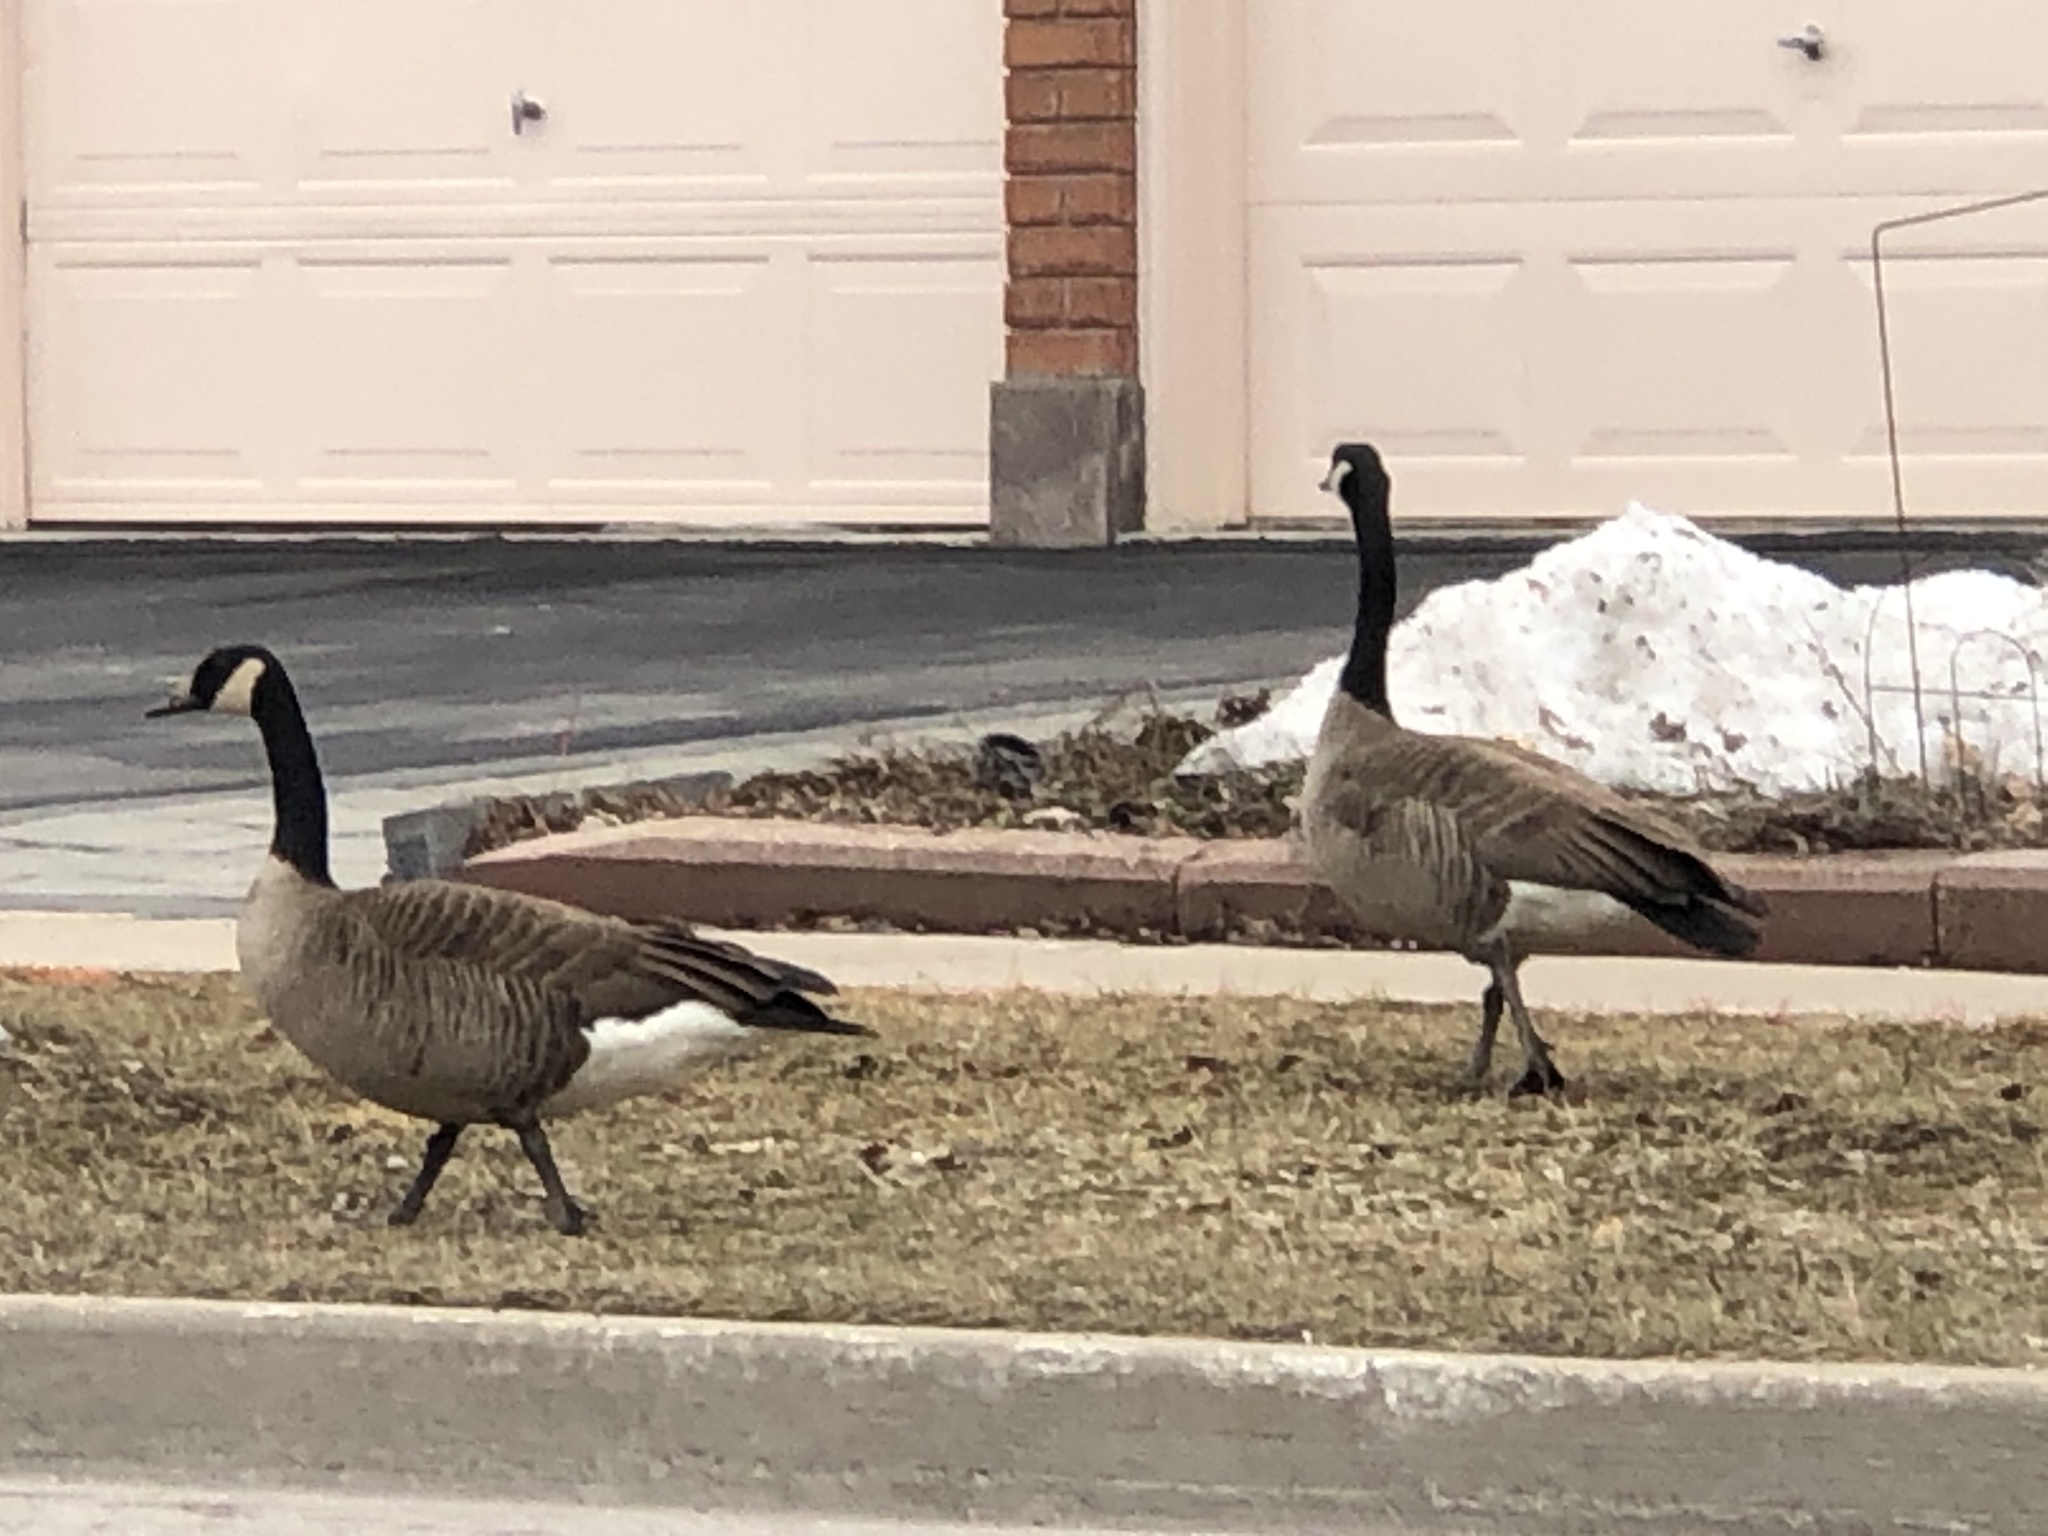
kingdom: Animalia
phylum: Chordata
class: Aves
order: Anseriformes
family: Anatidae
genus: Branta
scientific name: Branta canadensis
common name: Canada goose
